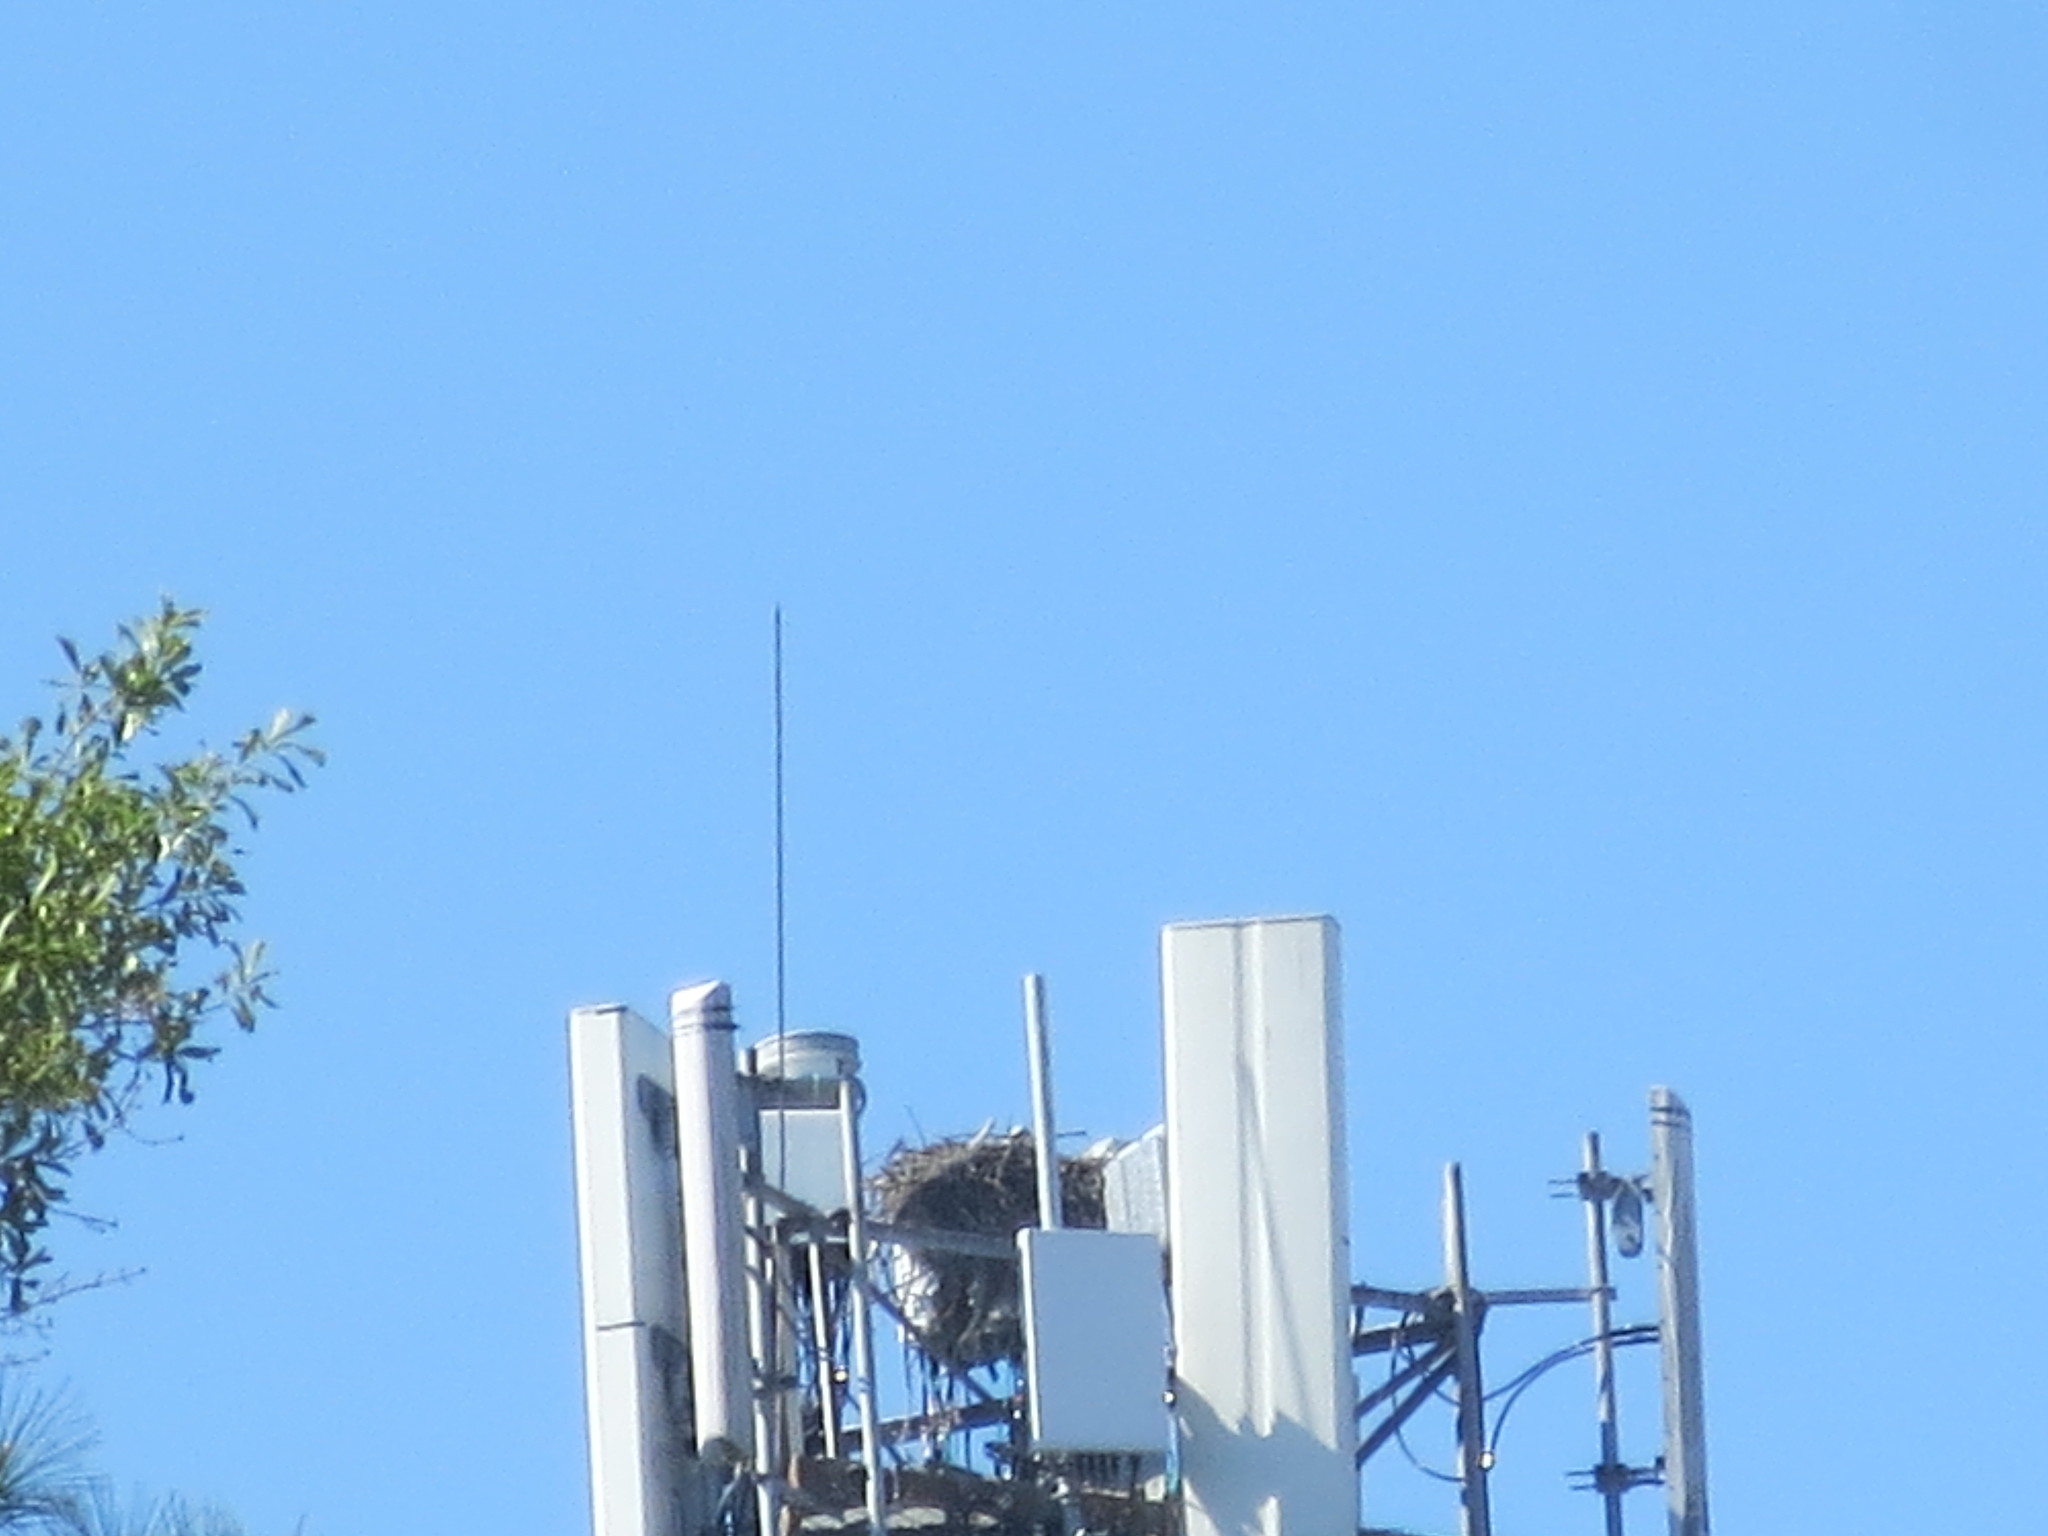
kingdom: Animalia
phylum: Chordata
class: Aves
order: Accipitriformes
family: Pandionidae
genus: Pandion
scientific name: Pandion haliaetus
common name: Osprey
